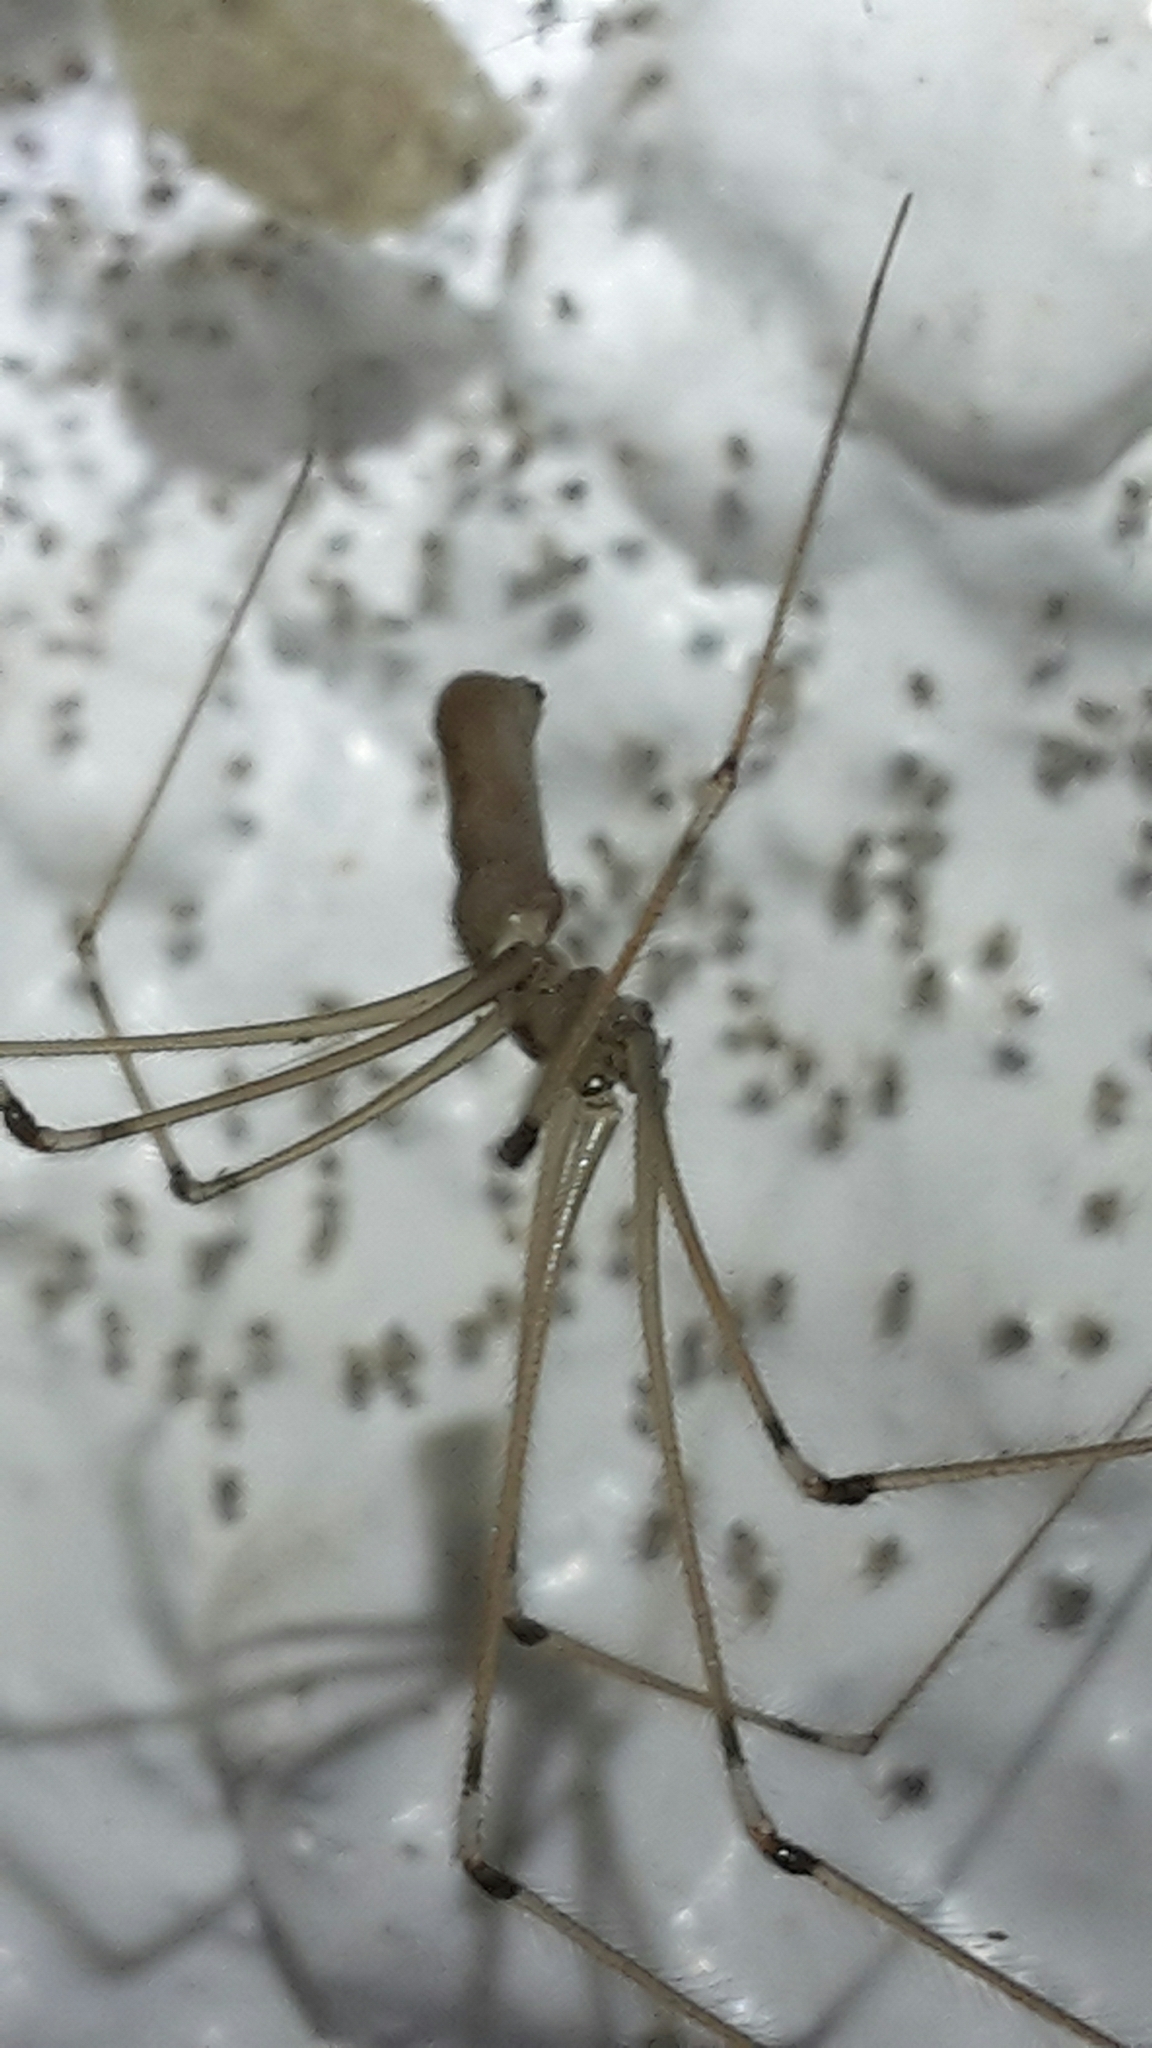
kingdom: Animalia
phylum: Arthropoda
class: Arachnida
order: Araneae
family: Pholcidae
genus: Pholcus
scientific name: Pholcus phalangioides
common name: Longbodied cellar spider
